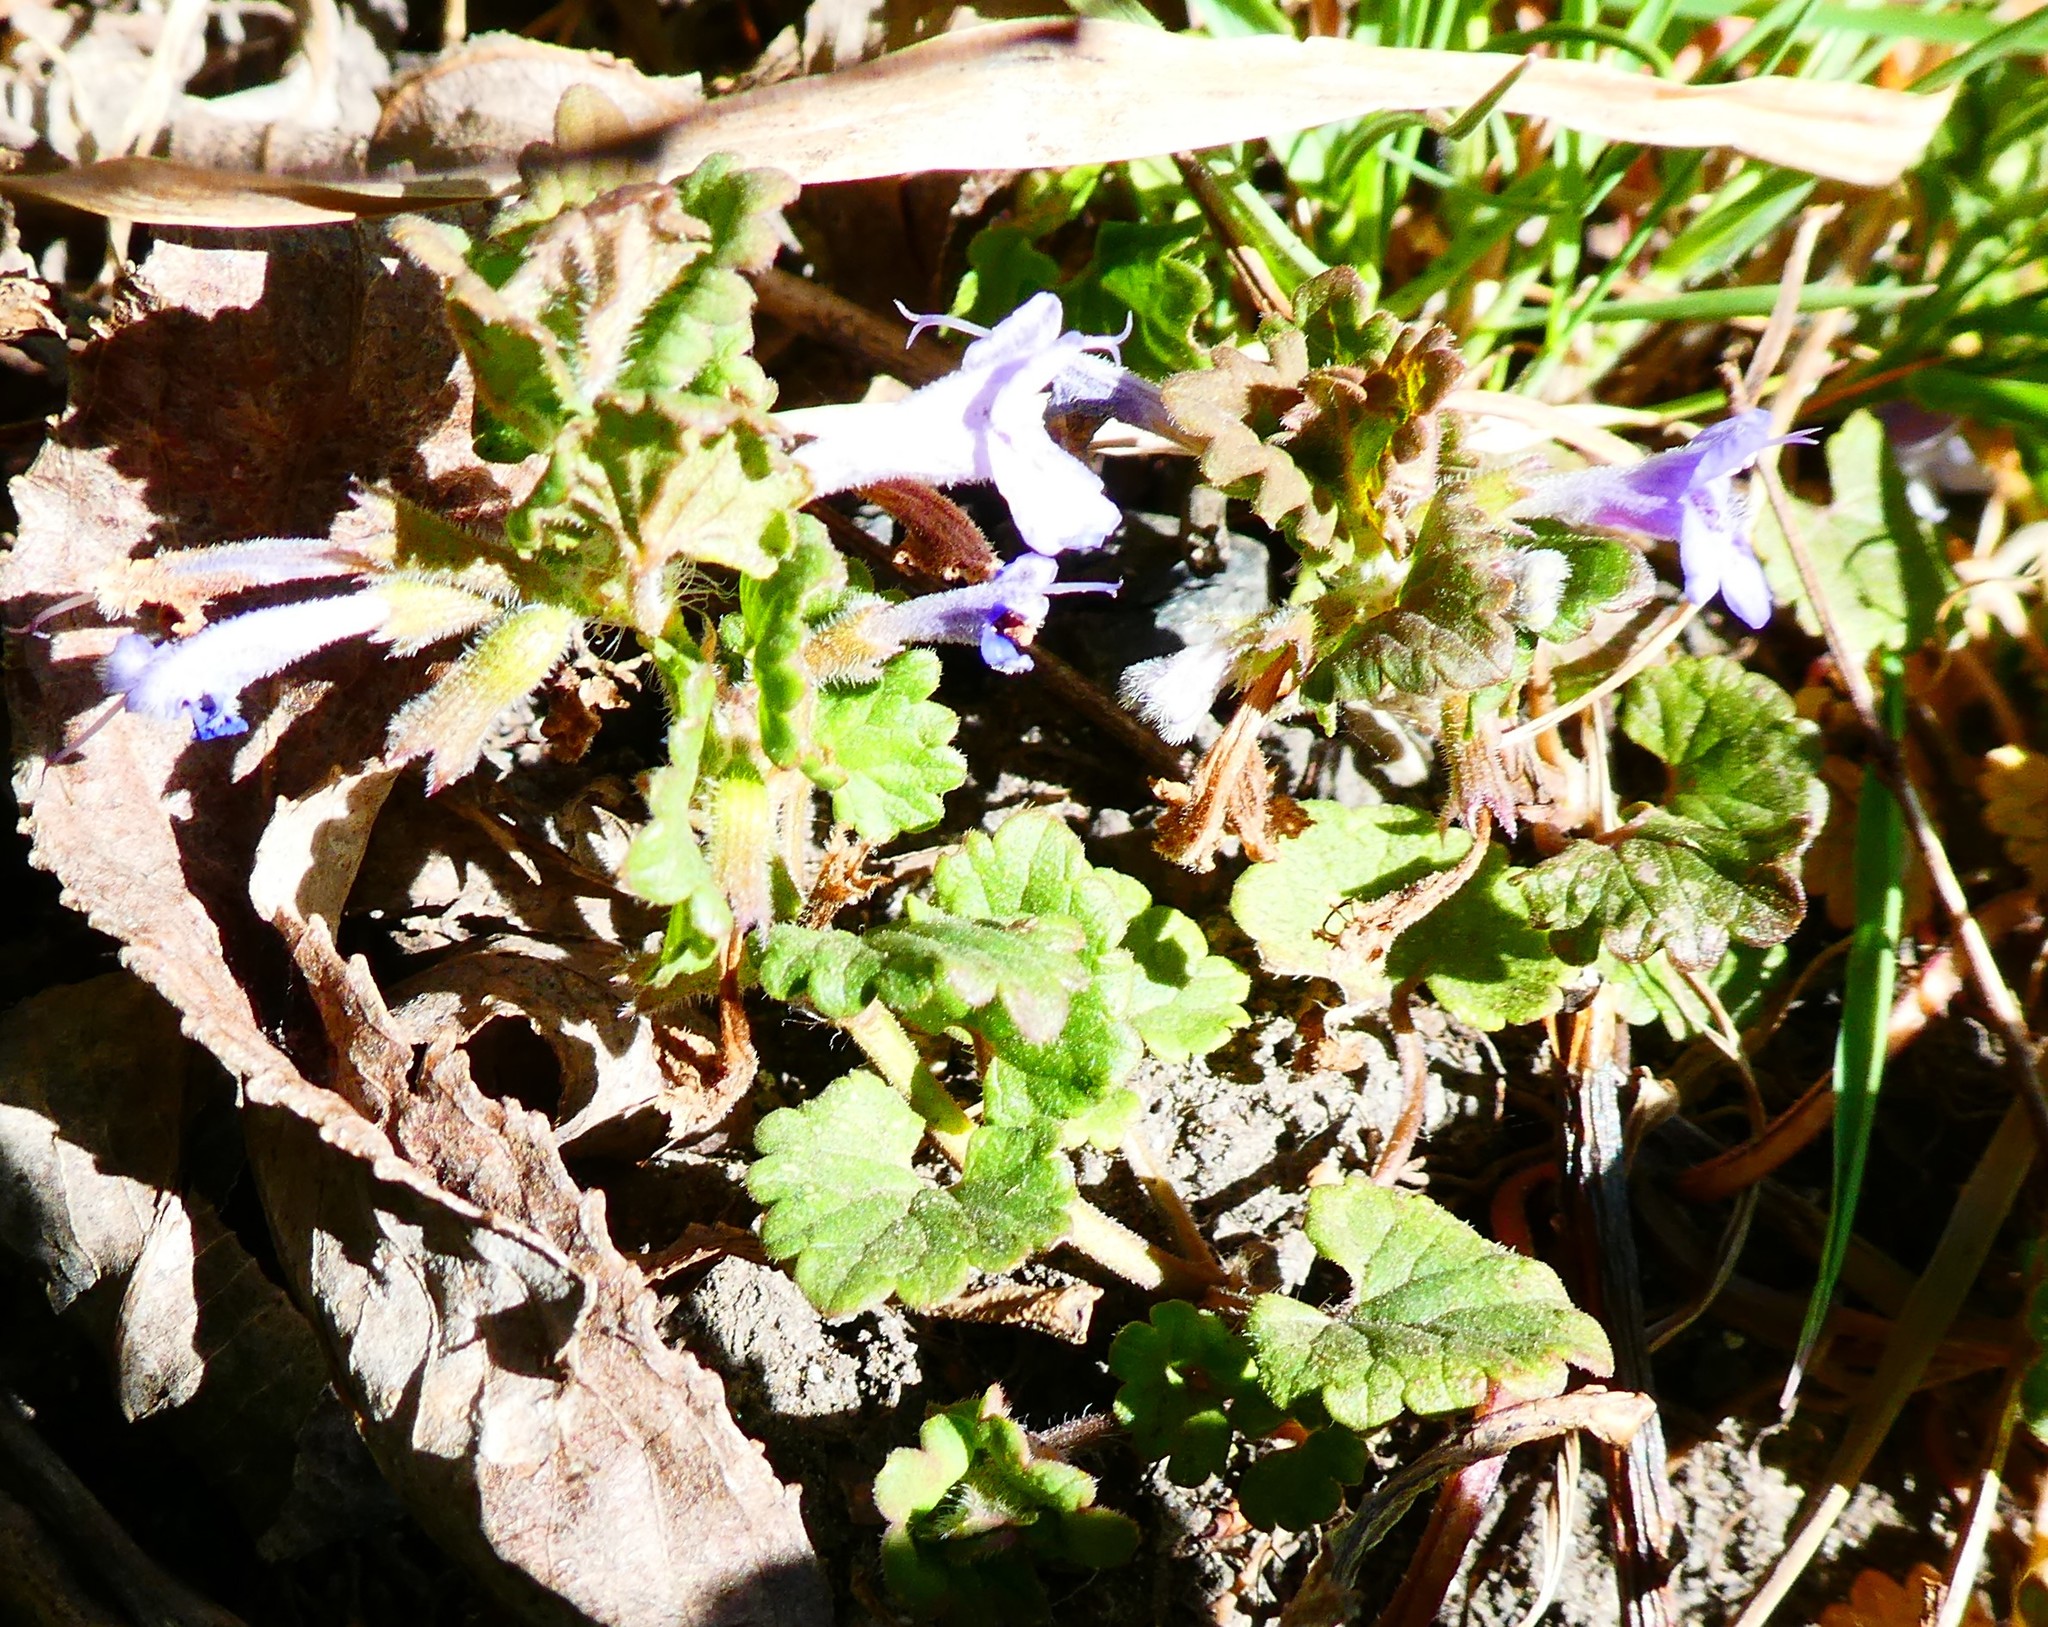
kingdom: Plantae
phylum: Tracheophyta
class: Magnoliopsida
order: Lamiales
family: Lamiaceae
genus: Glechoma
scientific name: Glechoma hederacea
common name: Ground ivy
